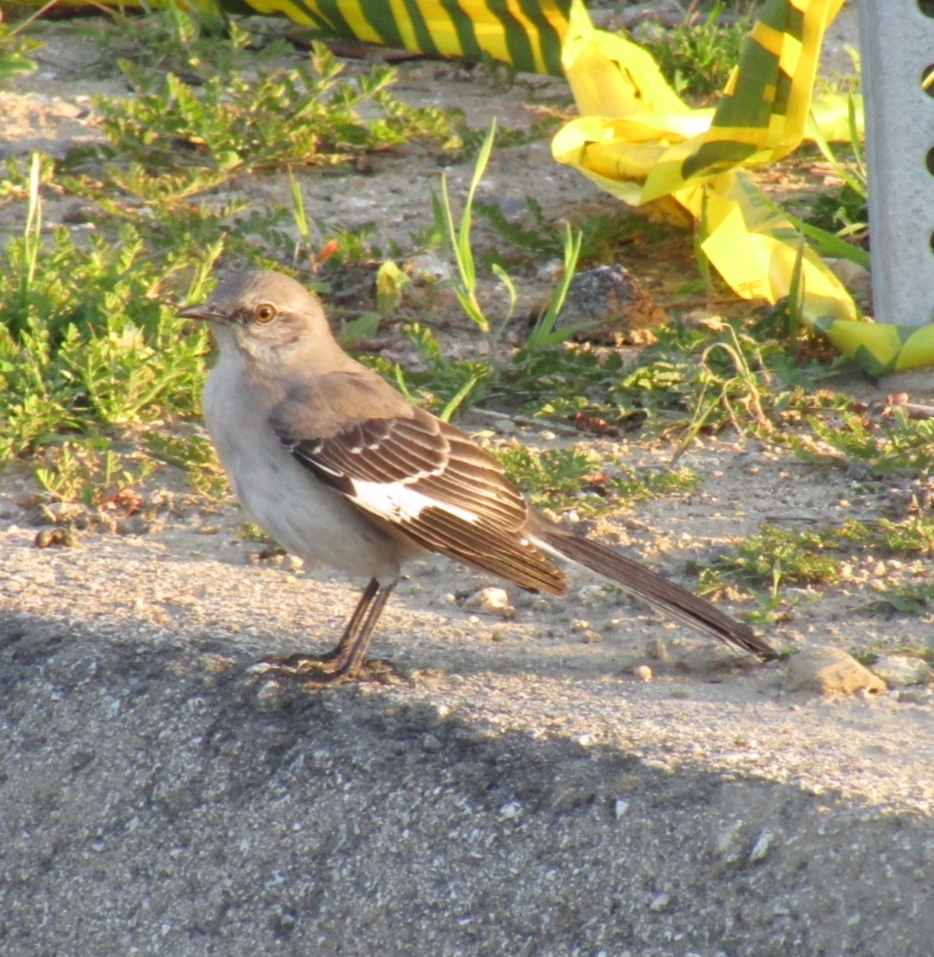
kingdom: Animalia
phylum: Chordata
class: Aves
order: Passeriformes
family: Mimidae
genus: Mimus
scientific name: Mimus polyglottos
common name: Northern mockingbird
